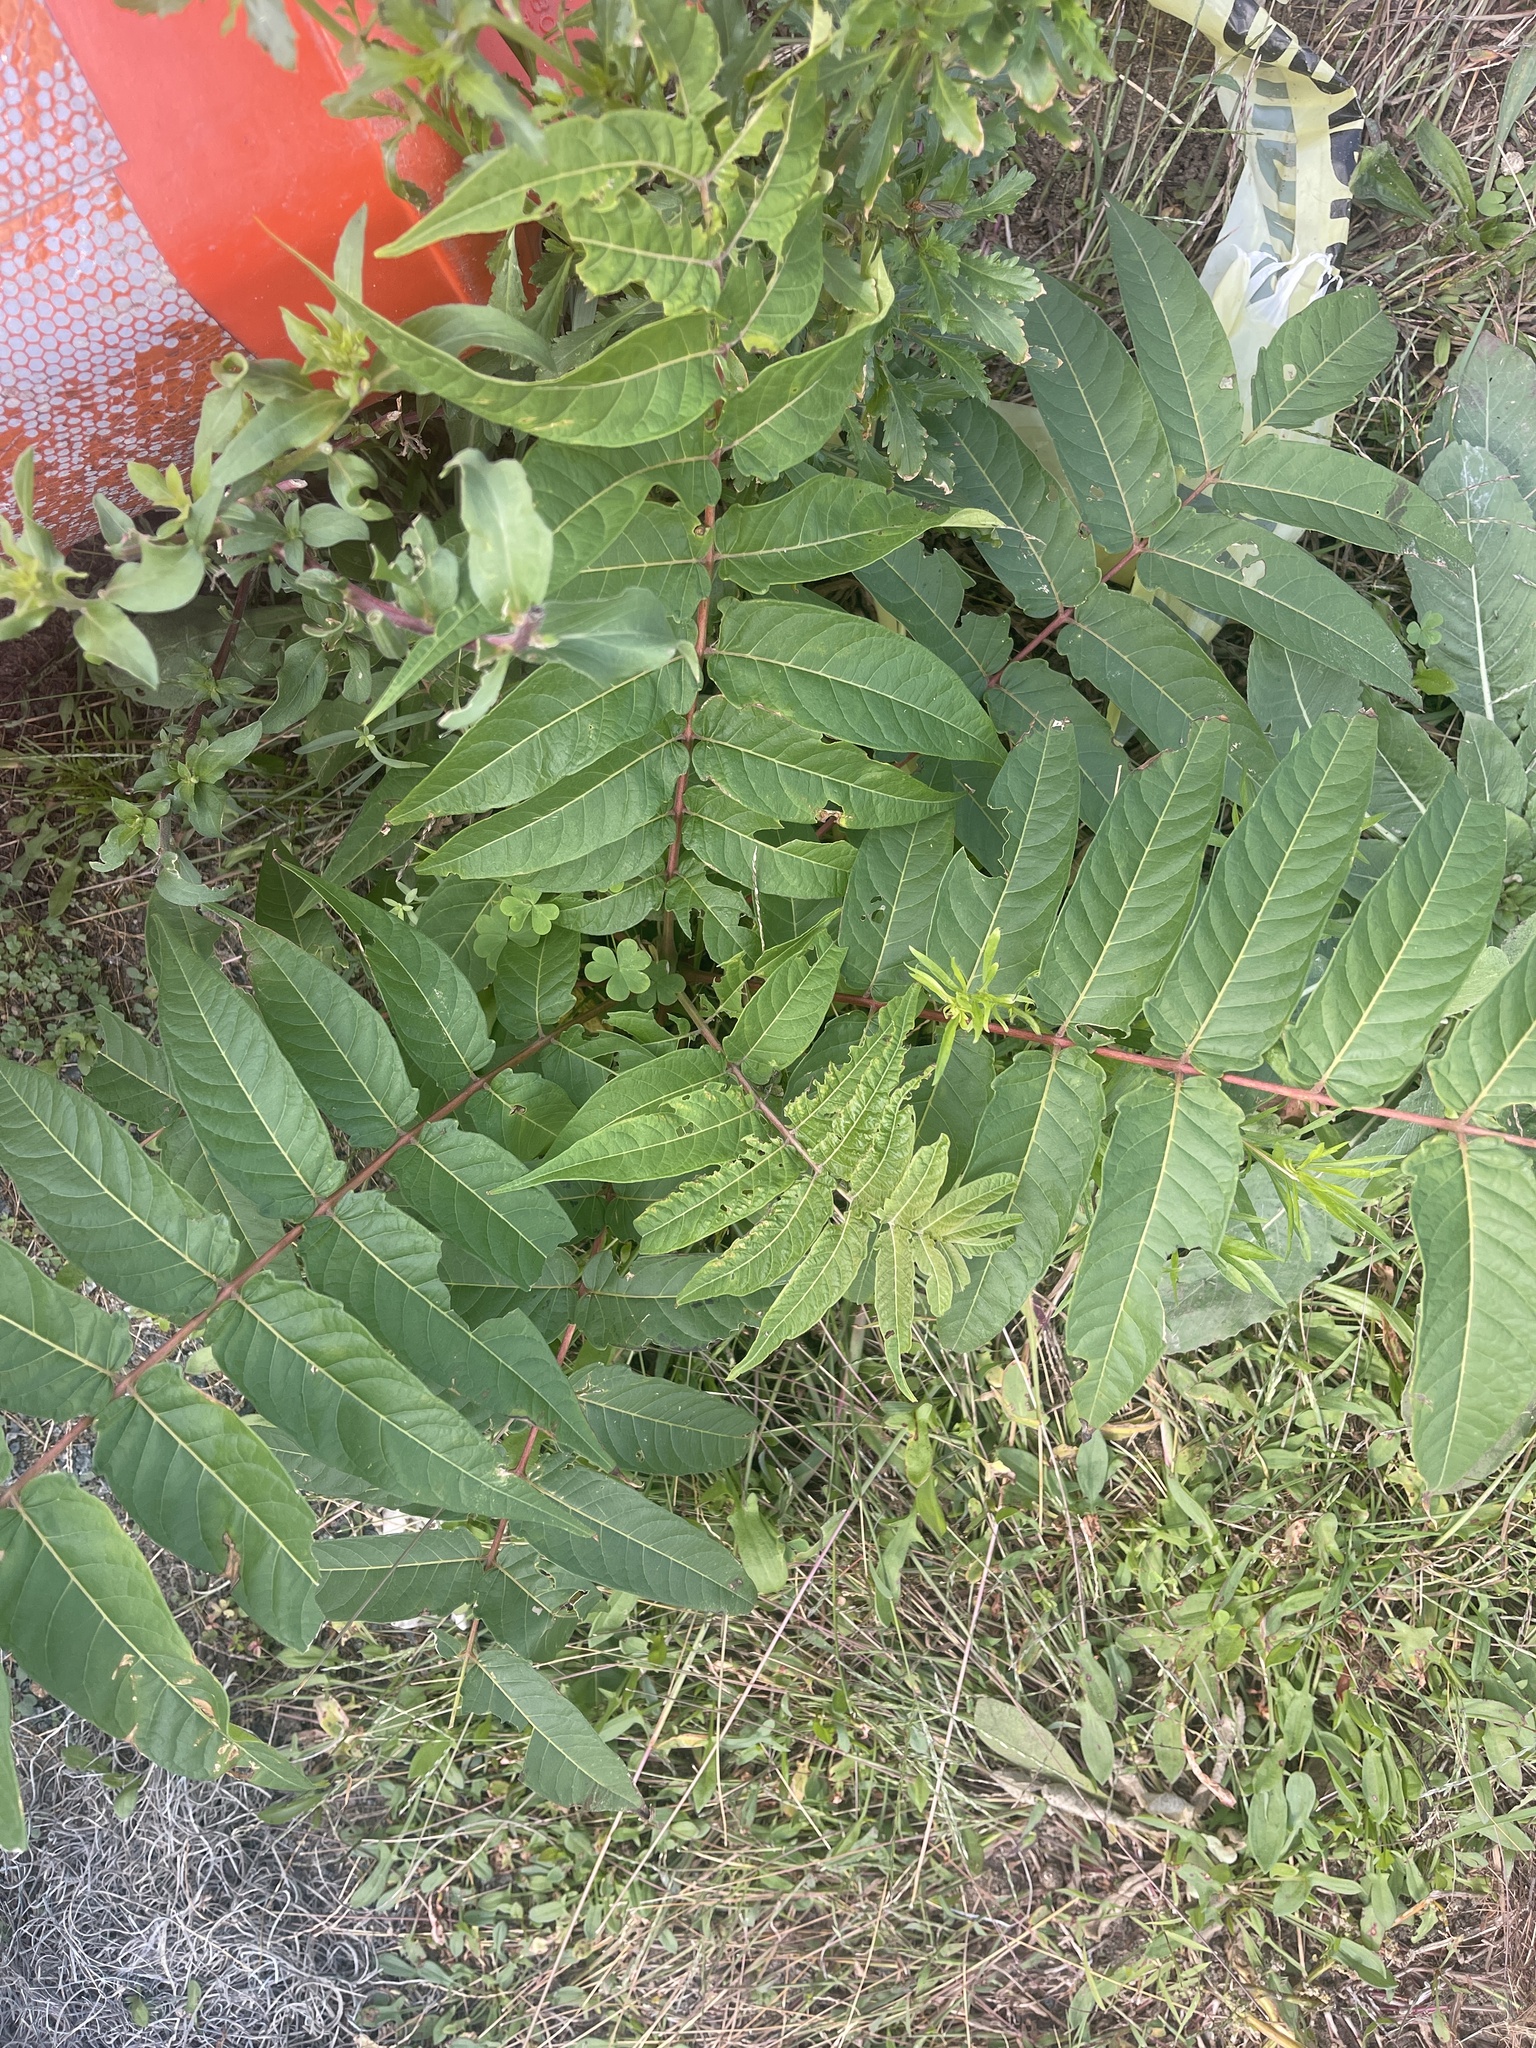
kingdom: Plantae
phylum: Tracheophyta
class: Magnoliopsida
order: Sapindales
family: Simaroubaceae
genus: Ailanthus
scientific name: Ailanthus altissima
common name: Tree-of-heaven
